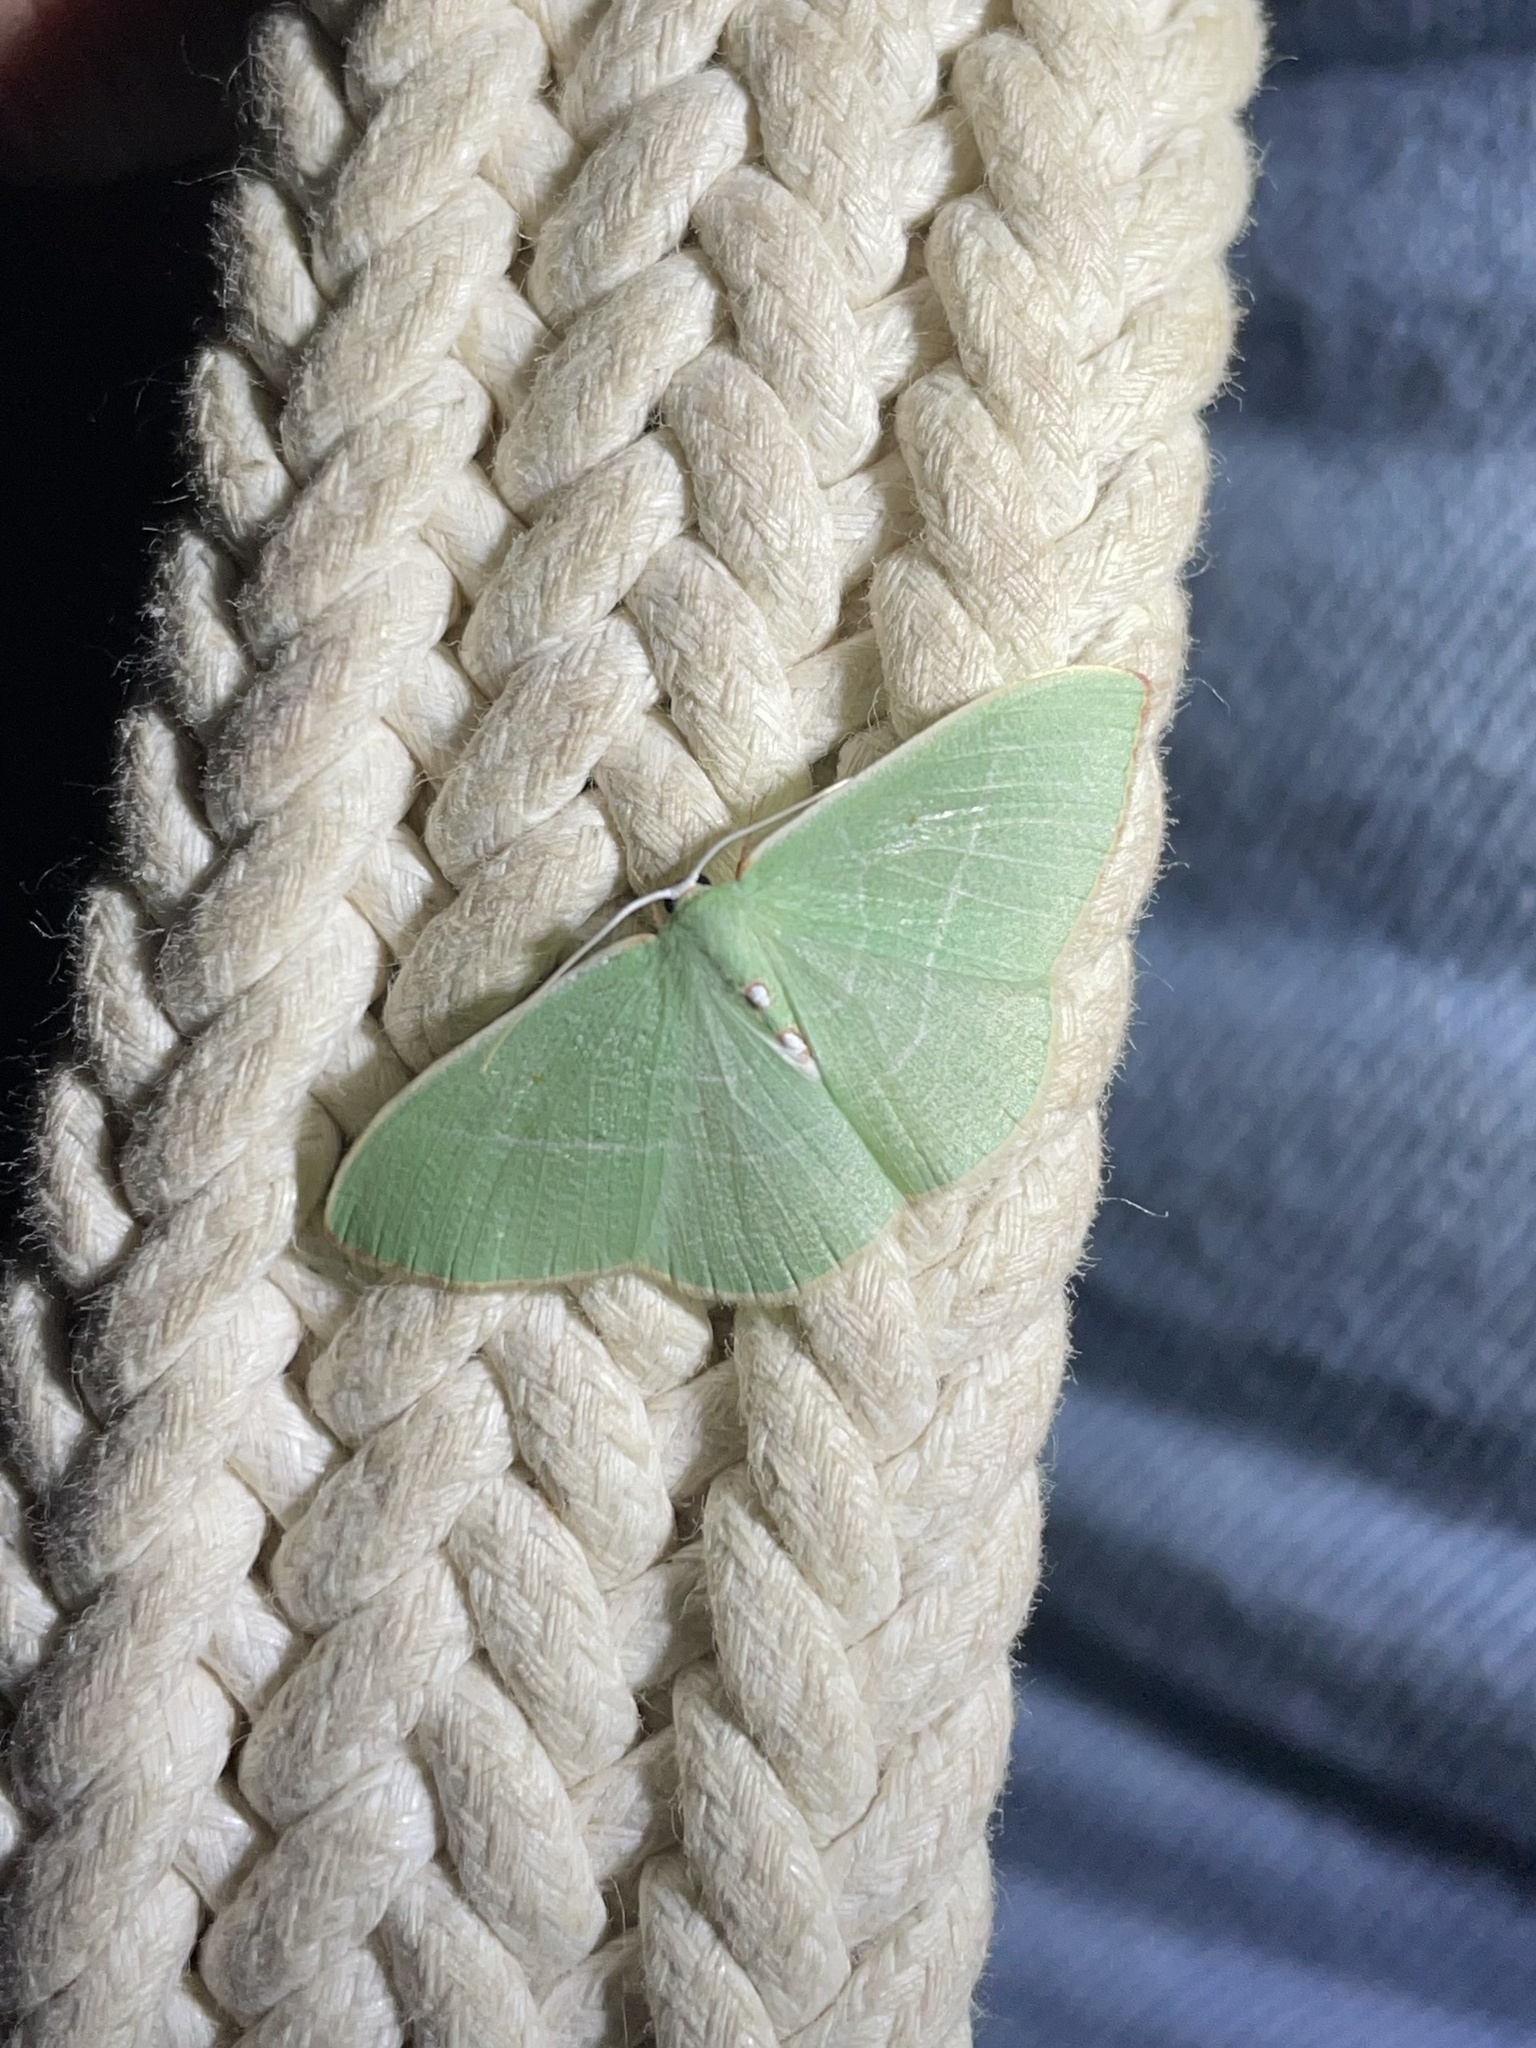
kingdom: Animalia
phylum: Arthropoda
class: Insecta
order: Lepidoptera
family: Geometridae
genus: Nemoria
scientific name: Nemoria darwiniata
